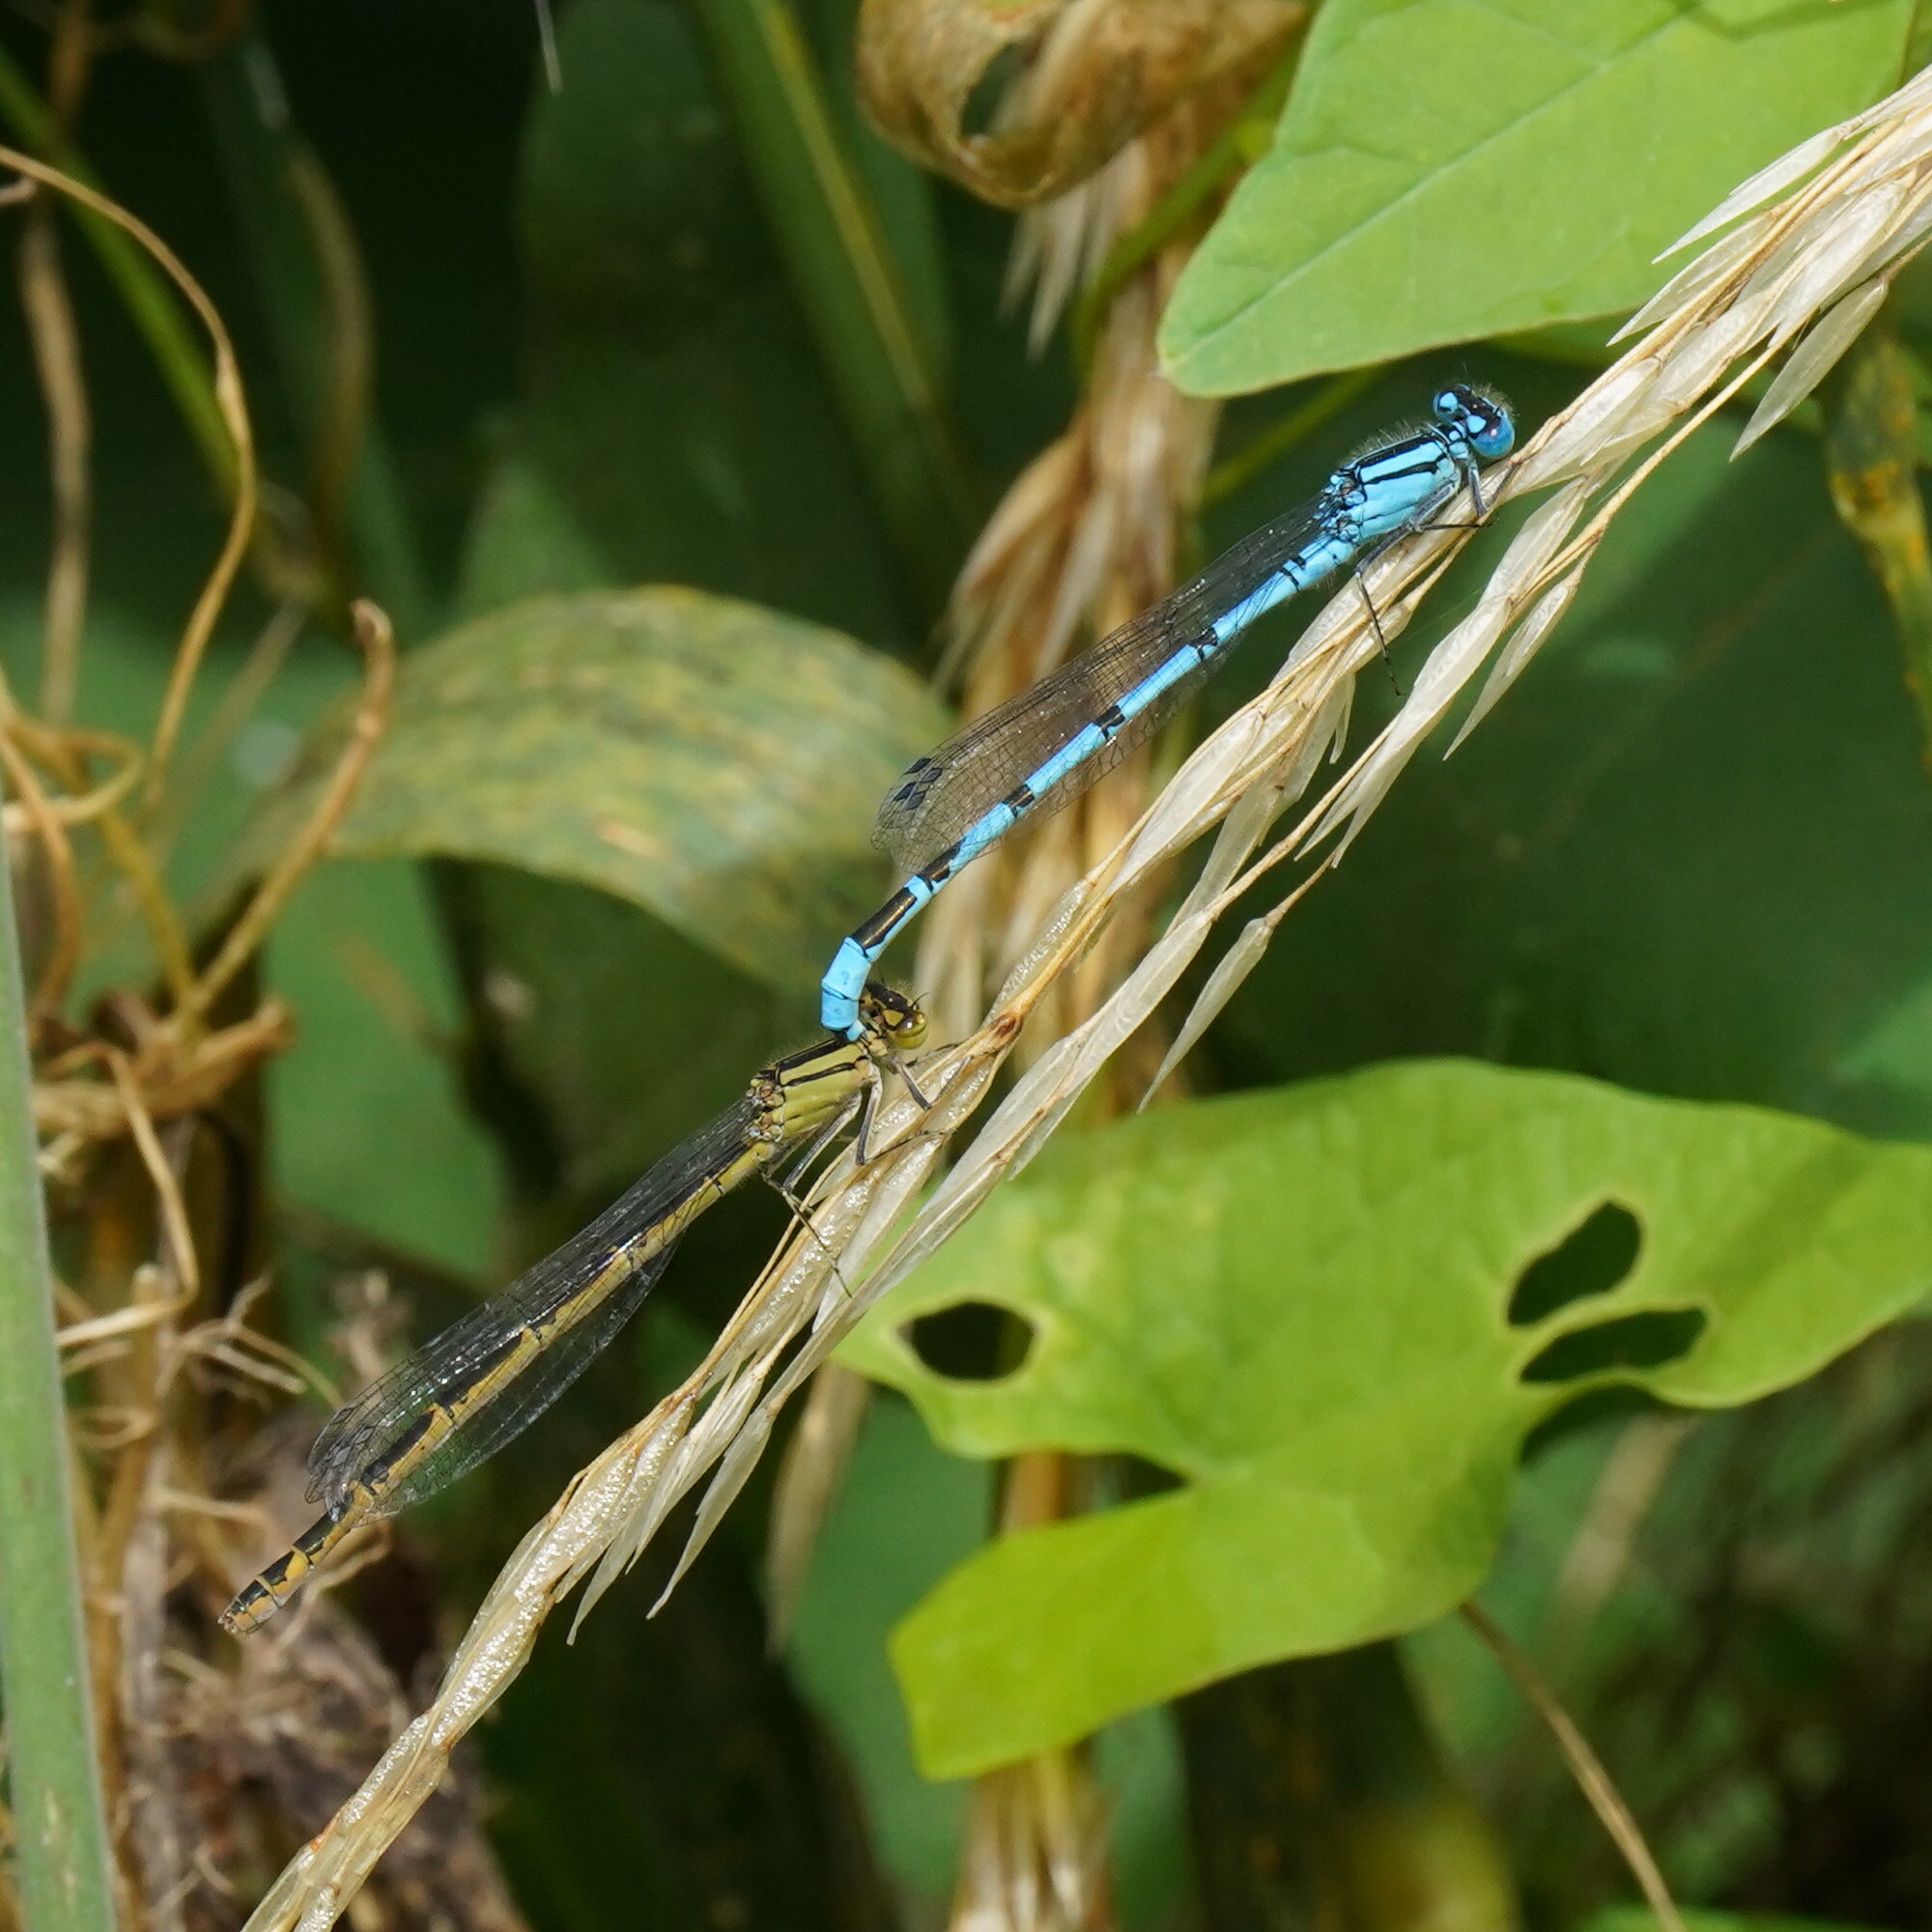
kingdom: Animalia
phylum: Arthropoda
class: Insecta
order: Odonata
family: Coenagrionidae
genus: Enallagma
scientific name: Enallagma cyathigerum
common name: Common blue damselfly
